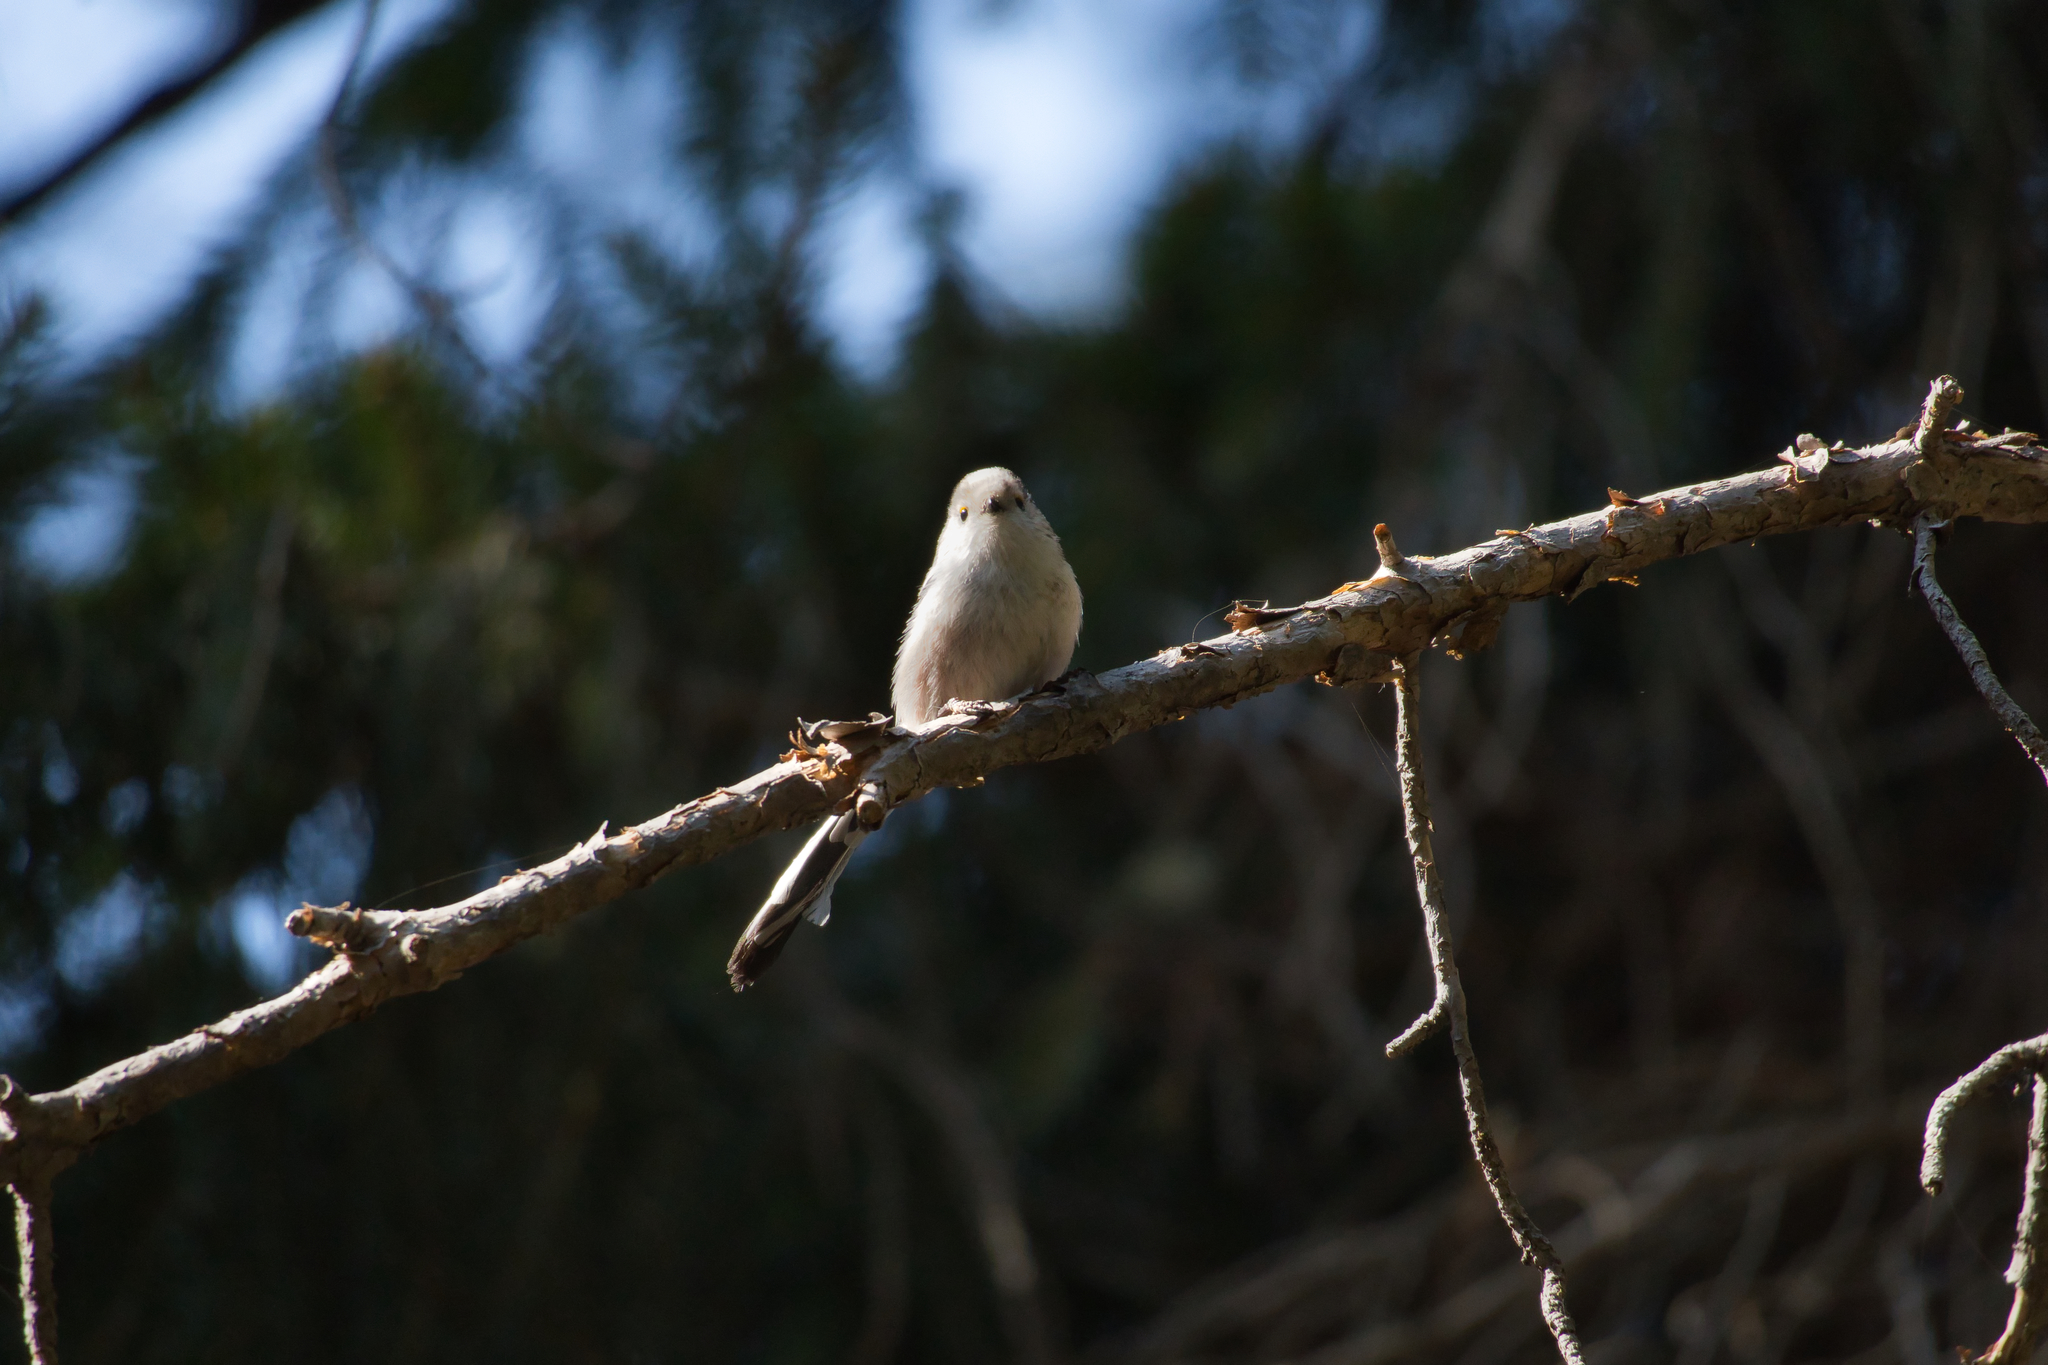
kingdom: Animalia
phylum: Chordata
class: Aves
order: Passeriformes
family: Aegithalidae
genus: Aegithalos
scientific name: Aegithalos caudatus
